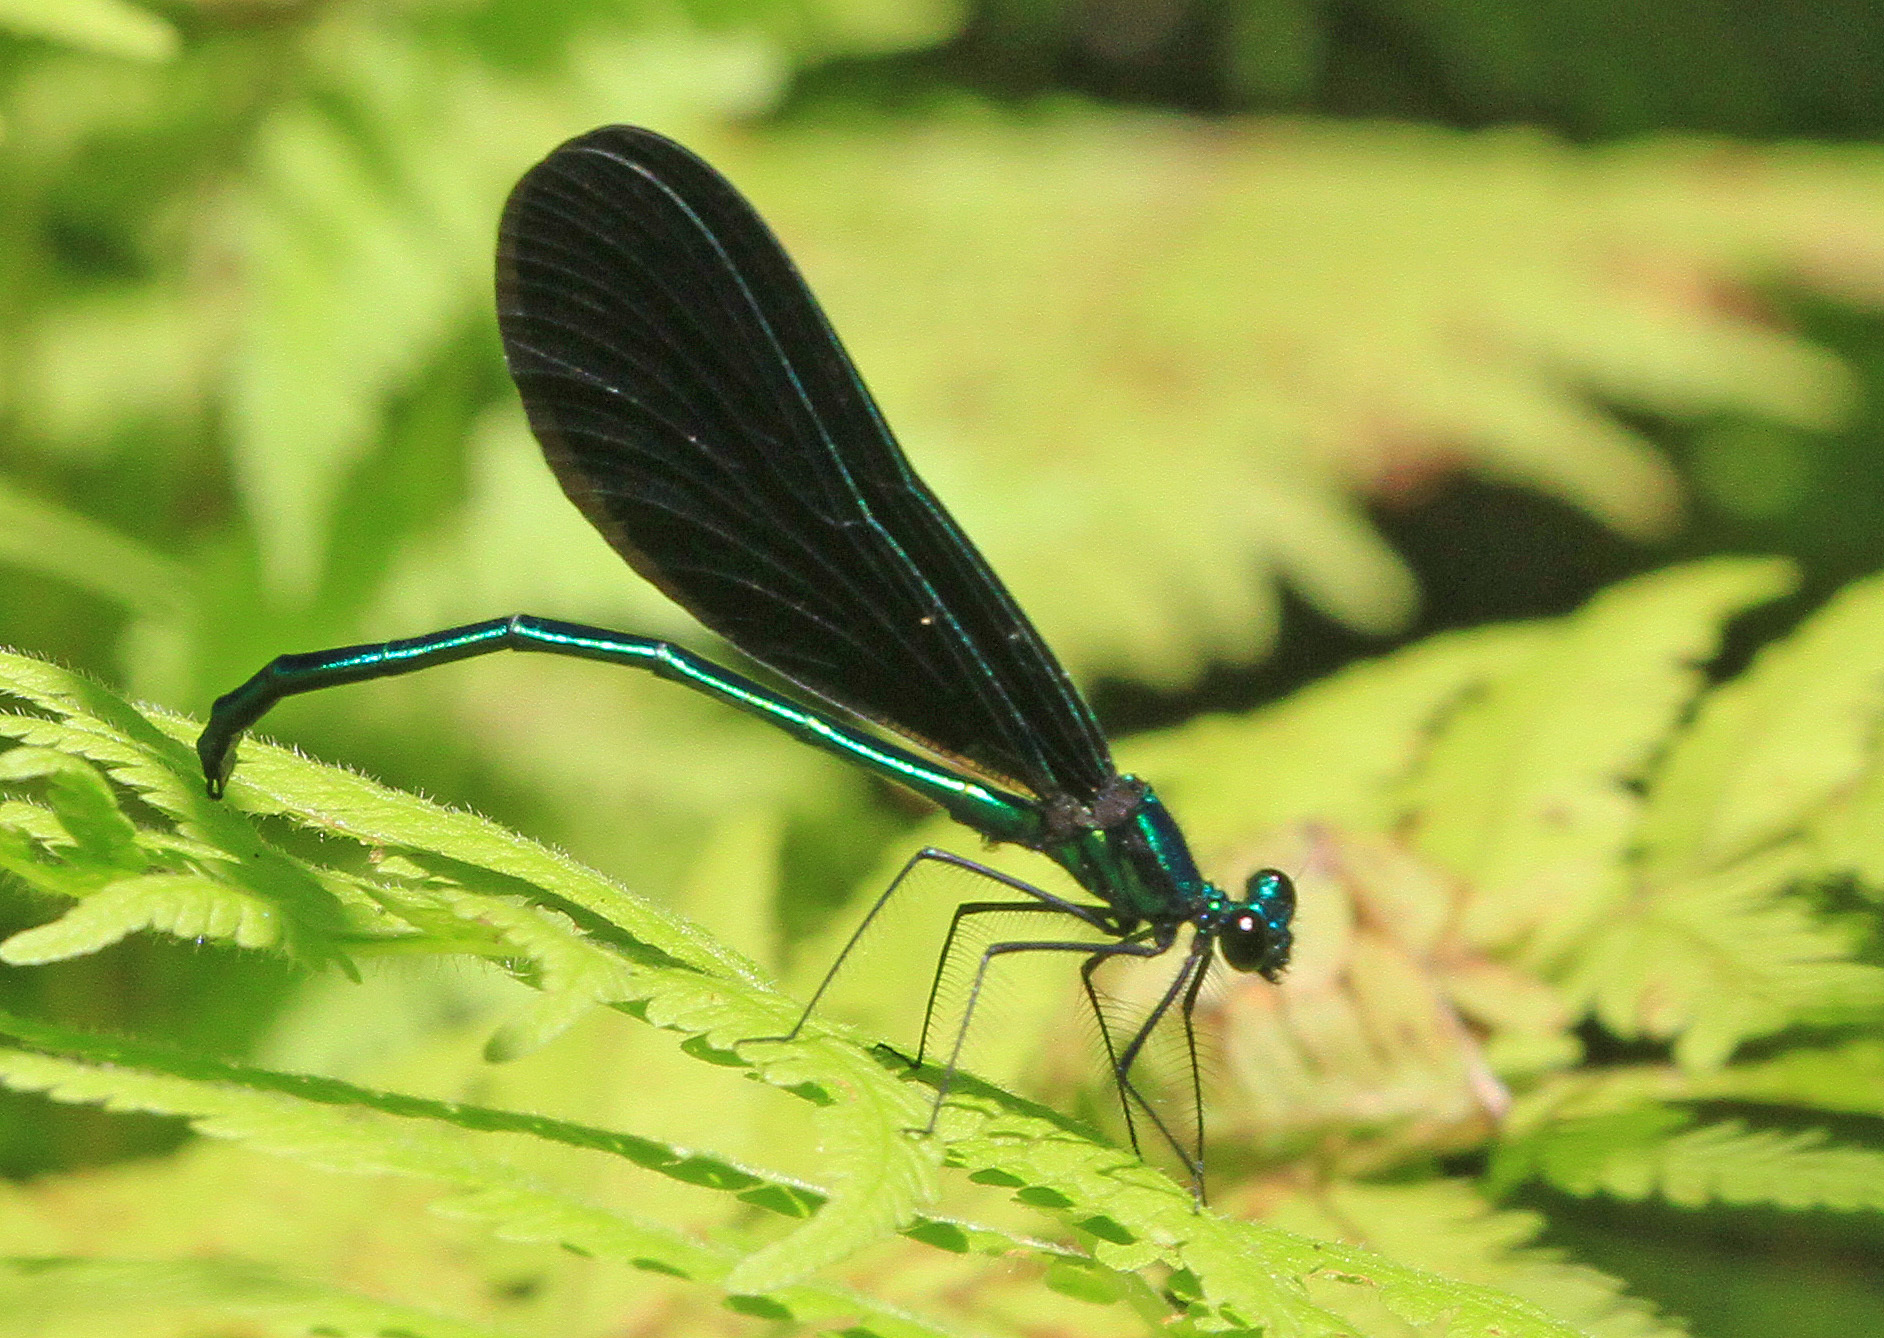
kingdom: Animalia
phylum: Arthropoda
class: Insecta
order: Odonata
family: Calopterygidae
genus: Calopteryx
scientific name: Calopteryx maculata
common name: Ebony jewelwing
